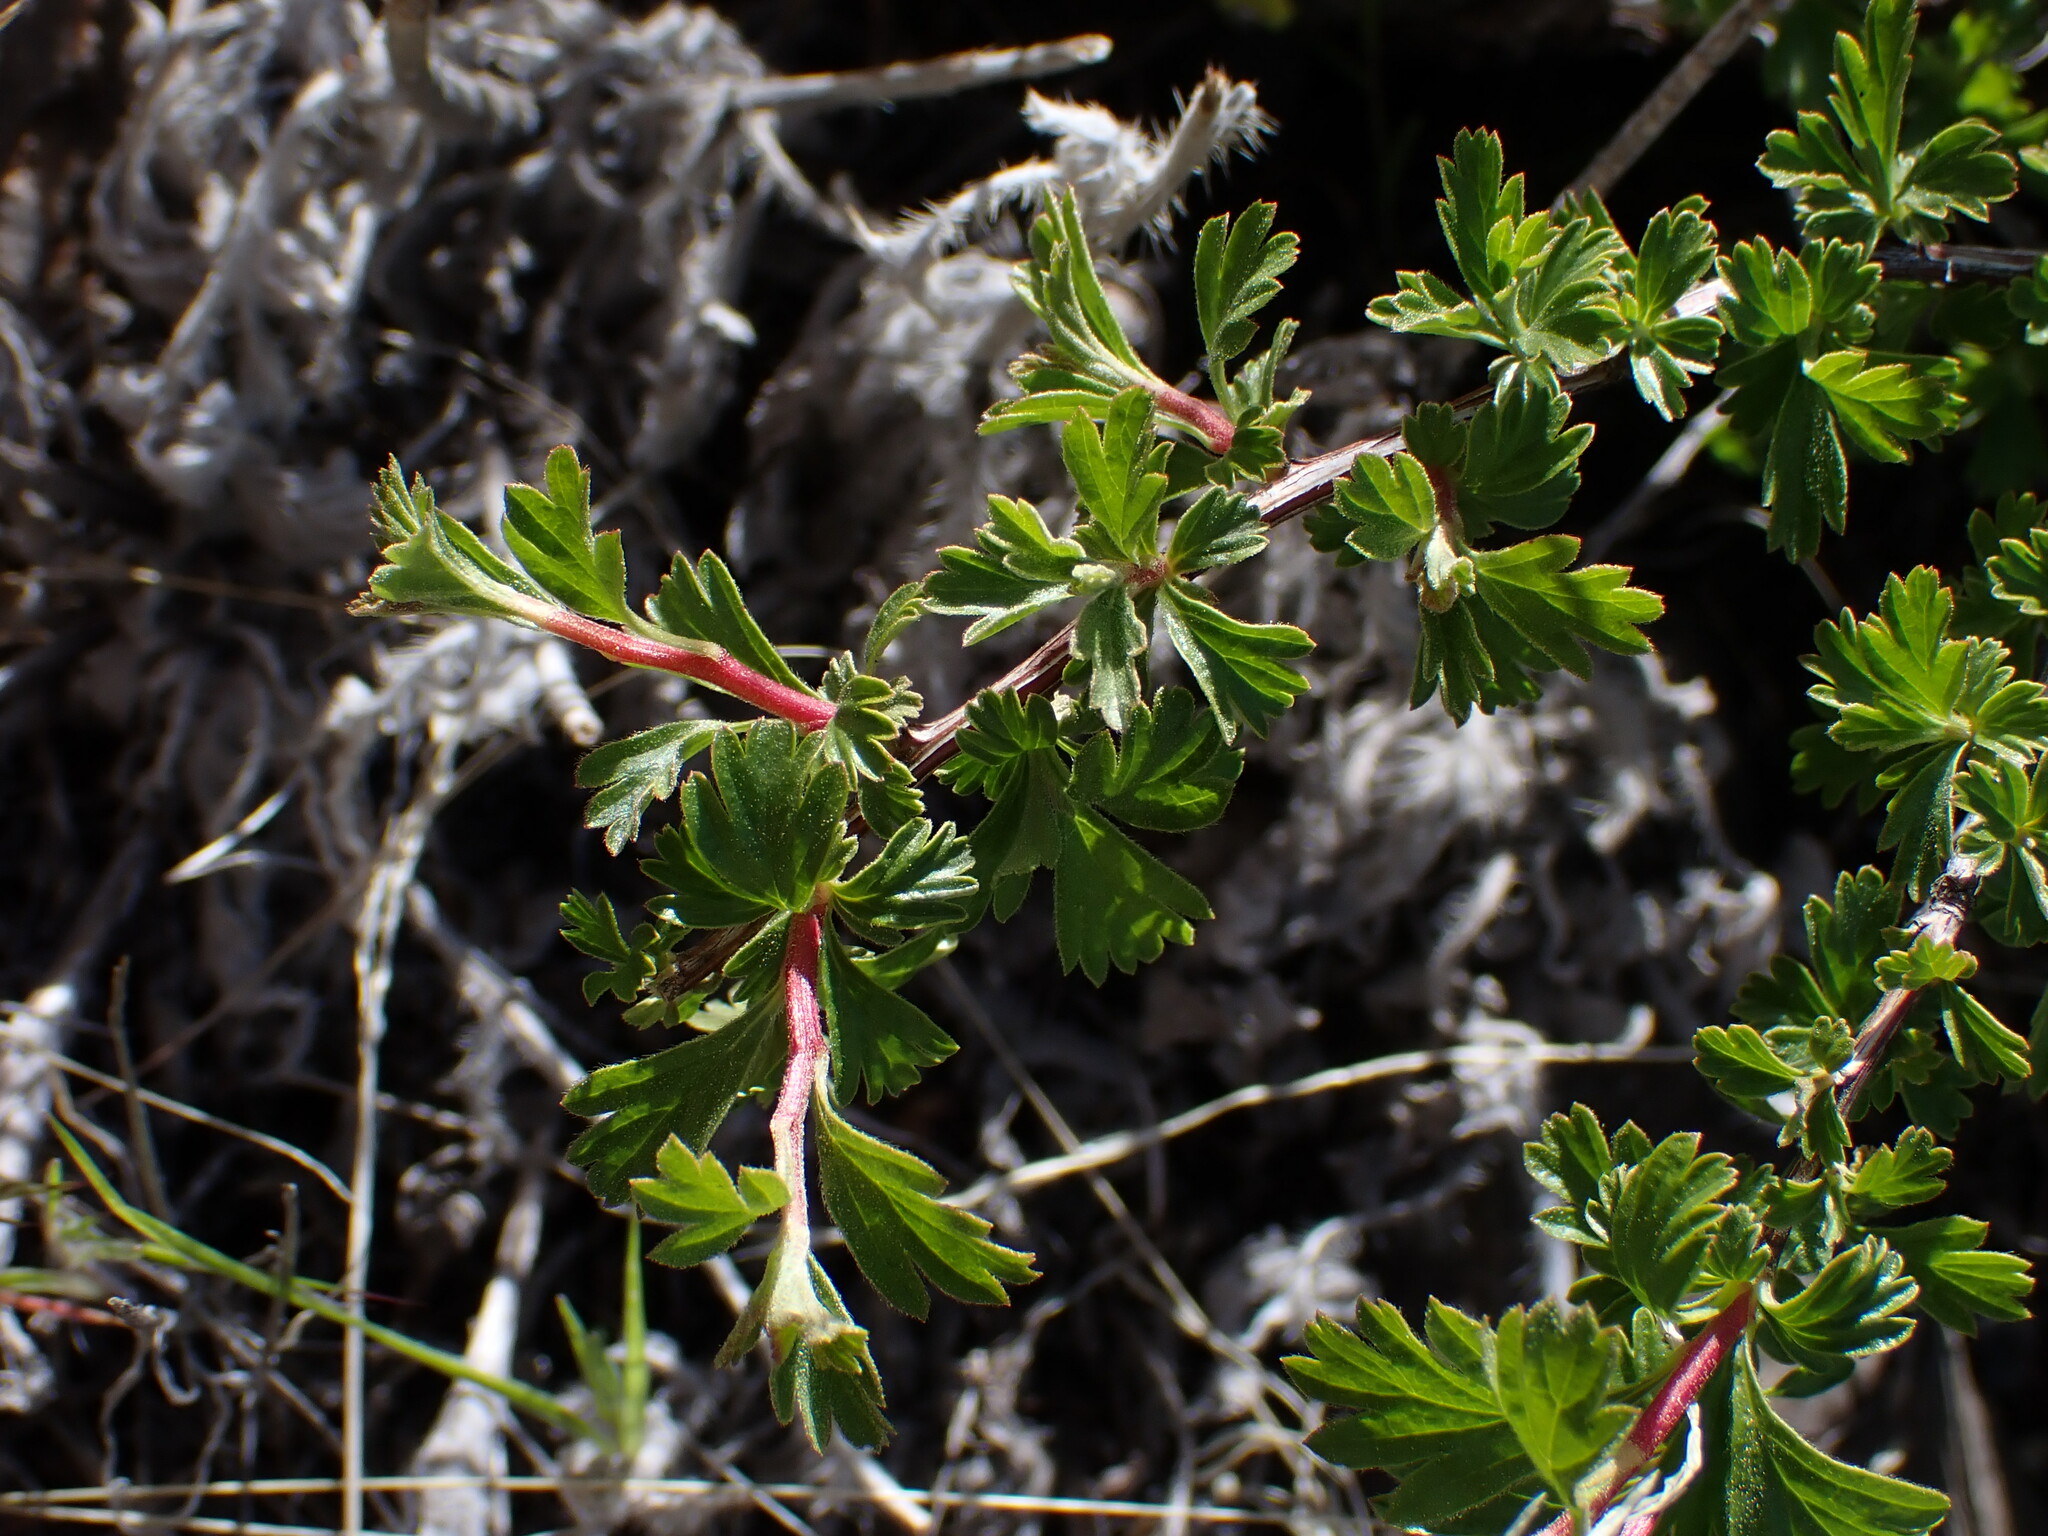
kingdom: Plantae
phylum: Tracheophyta
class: Magnoliopsida
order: Rosales
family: Rosaceae
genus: Holodiscus
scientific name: Holodiscus discolor
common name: Oceanspray
